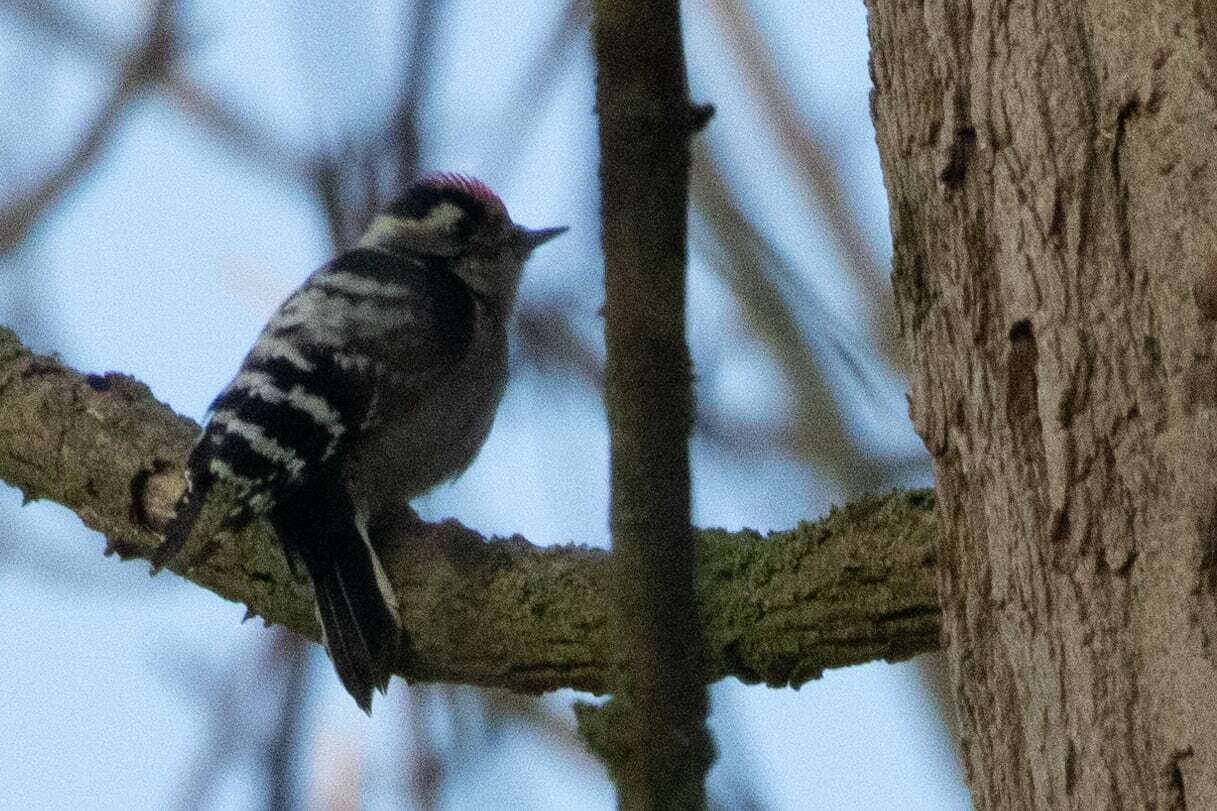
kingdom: Animalia
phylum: Chordata
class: Aves
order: Piciformes
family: Picidae
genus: Dryobates
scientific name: Dryobates minor
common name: Lesser spotted woodpecker
